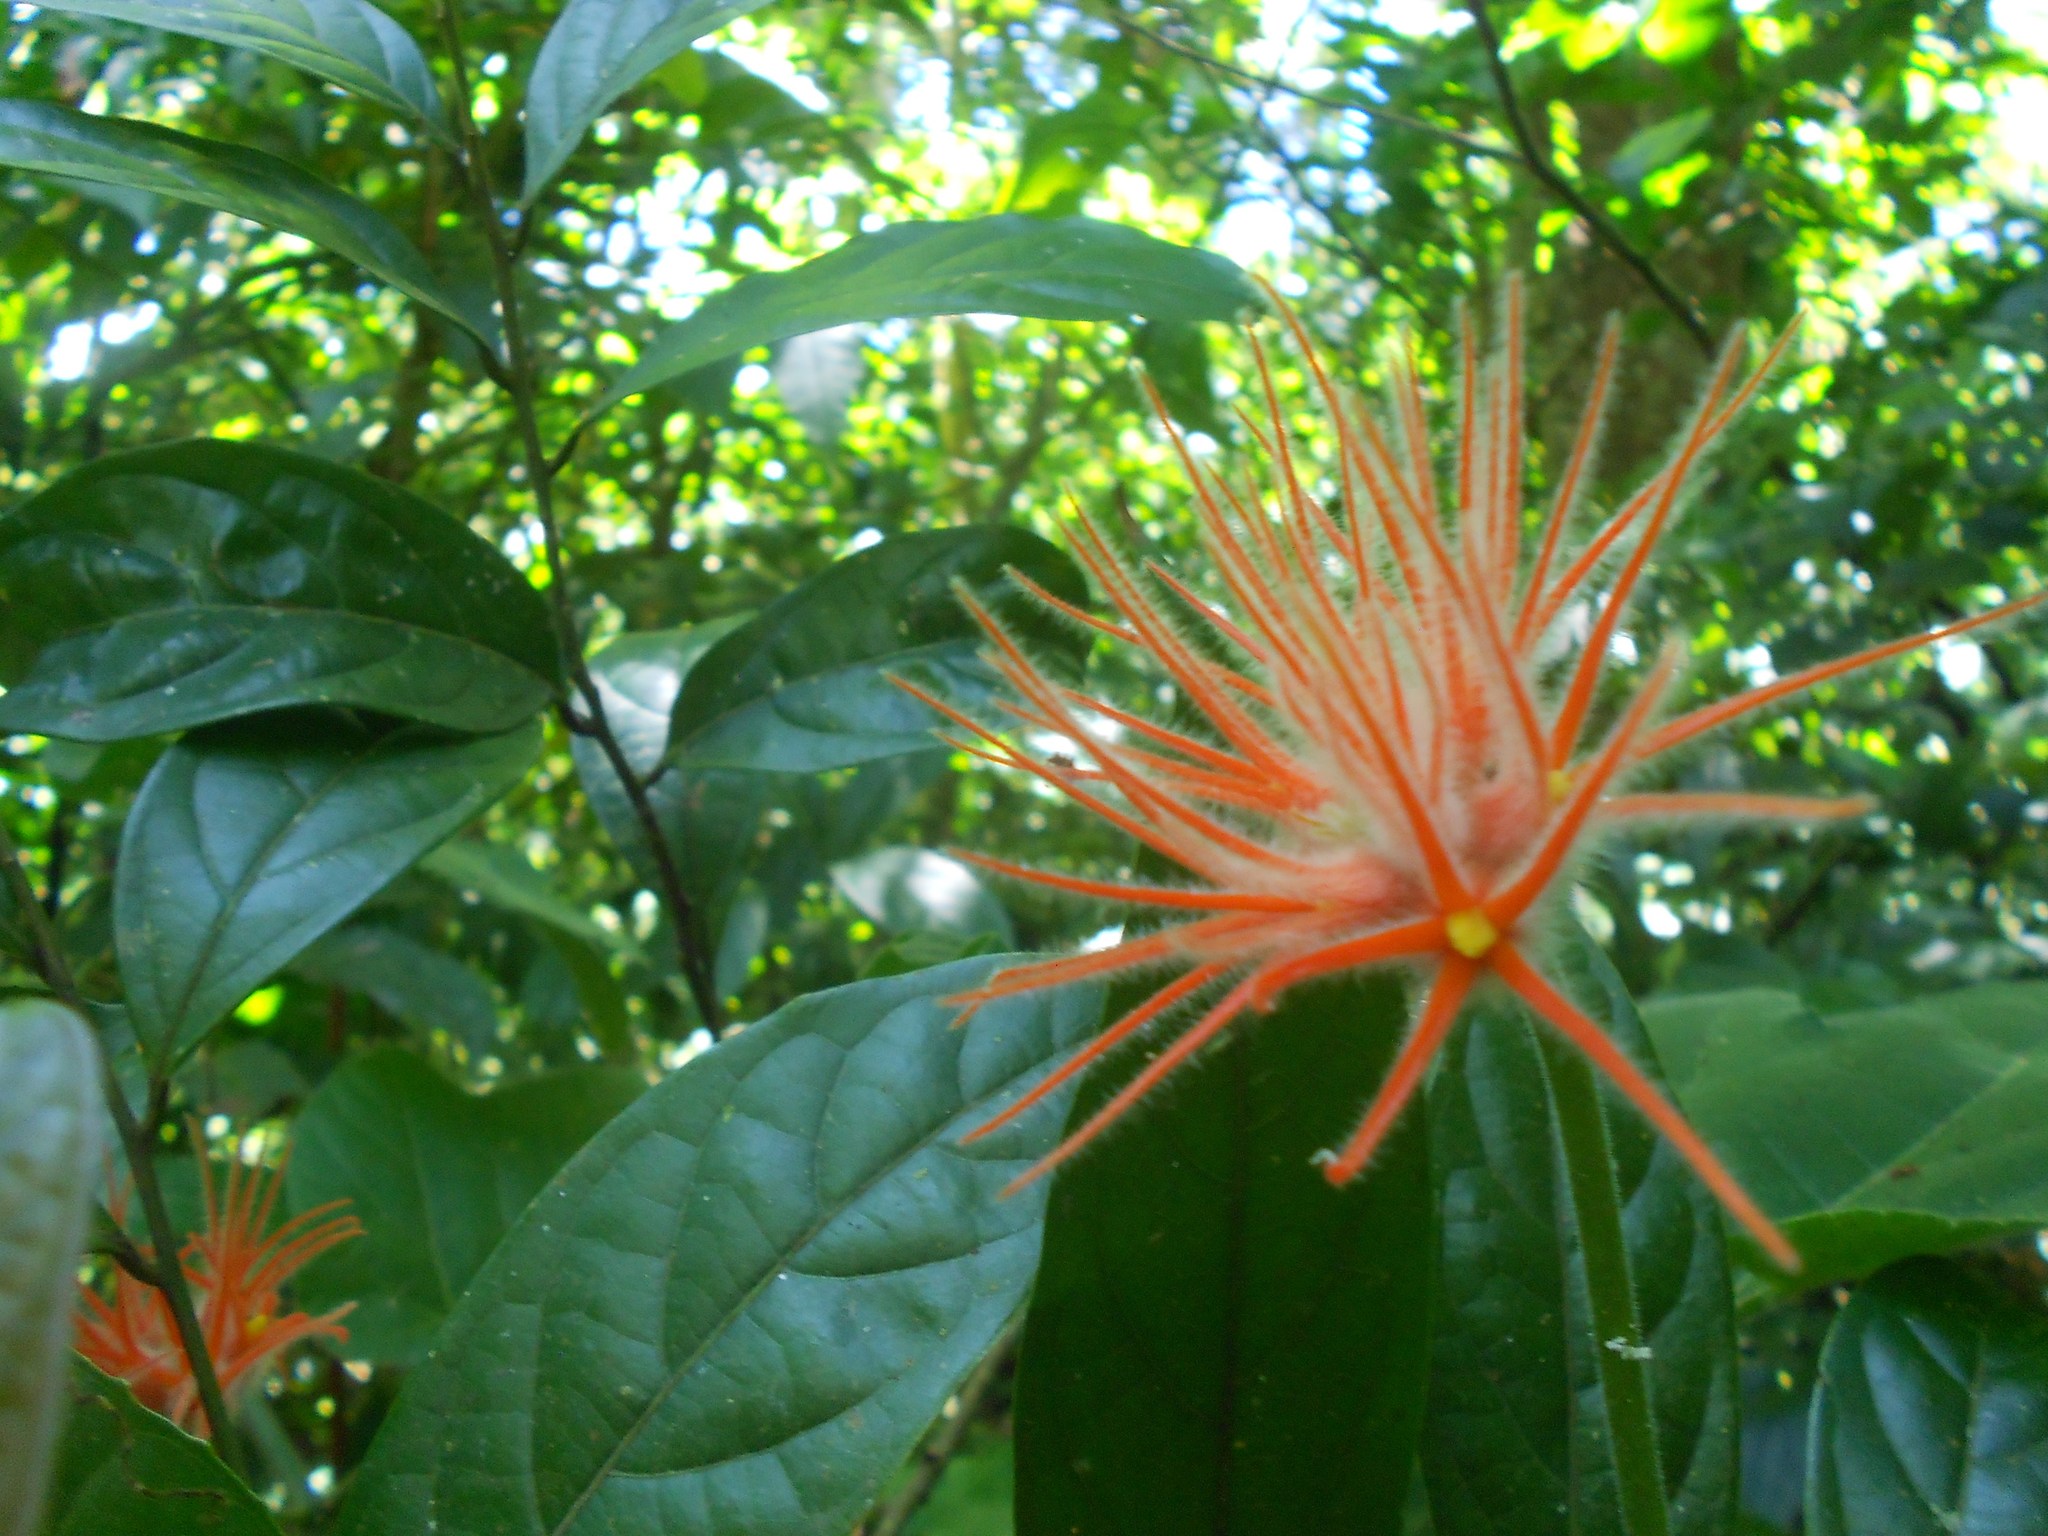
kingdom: Plantae
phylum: Tracheophyta
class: Magnoliopsida
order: Cucurbitales
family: Cucurbitaceae
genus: Gurania
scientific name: Gurania makoyana
